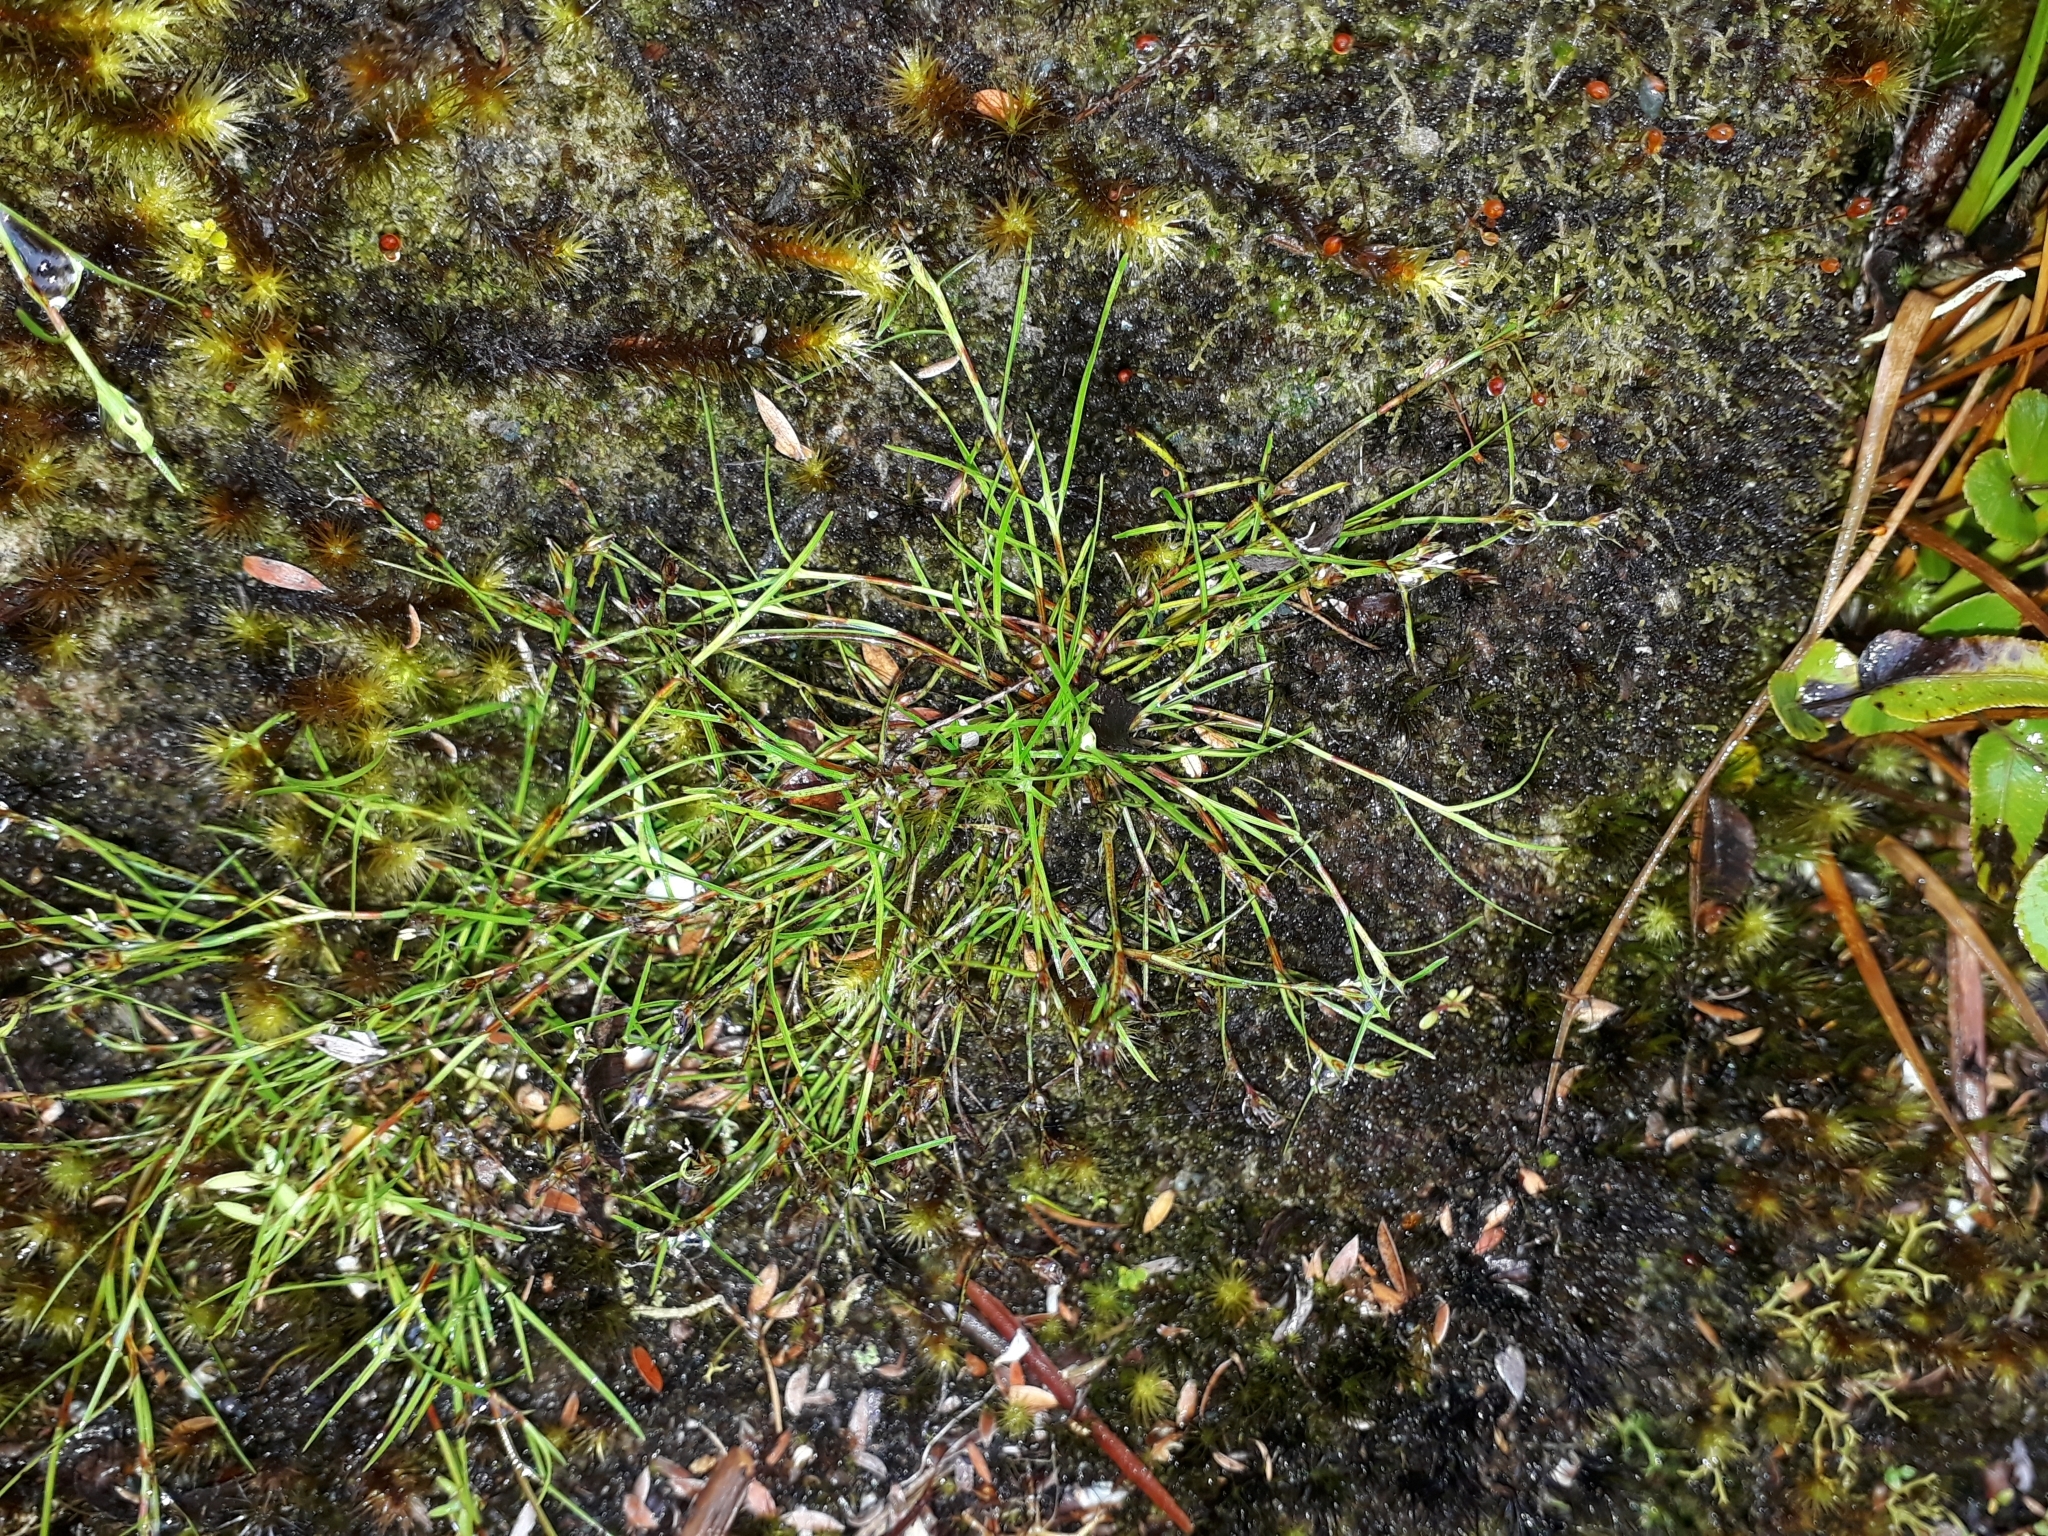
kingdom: Plantae
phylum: Tracheophyta
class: Liliopsida
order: Poales
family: Cyperaceae
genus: Schoenus
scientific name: Schoenus maschalinus
